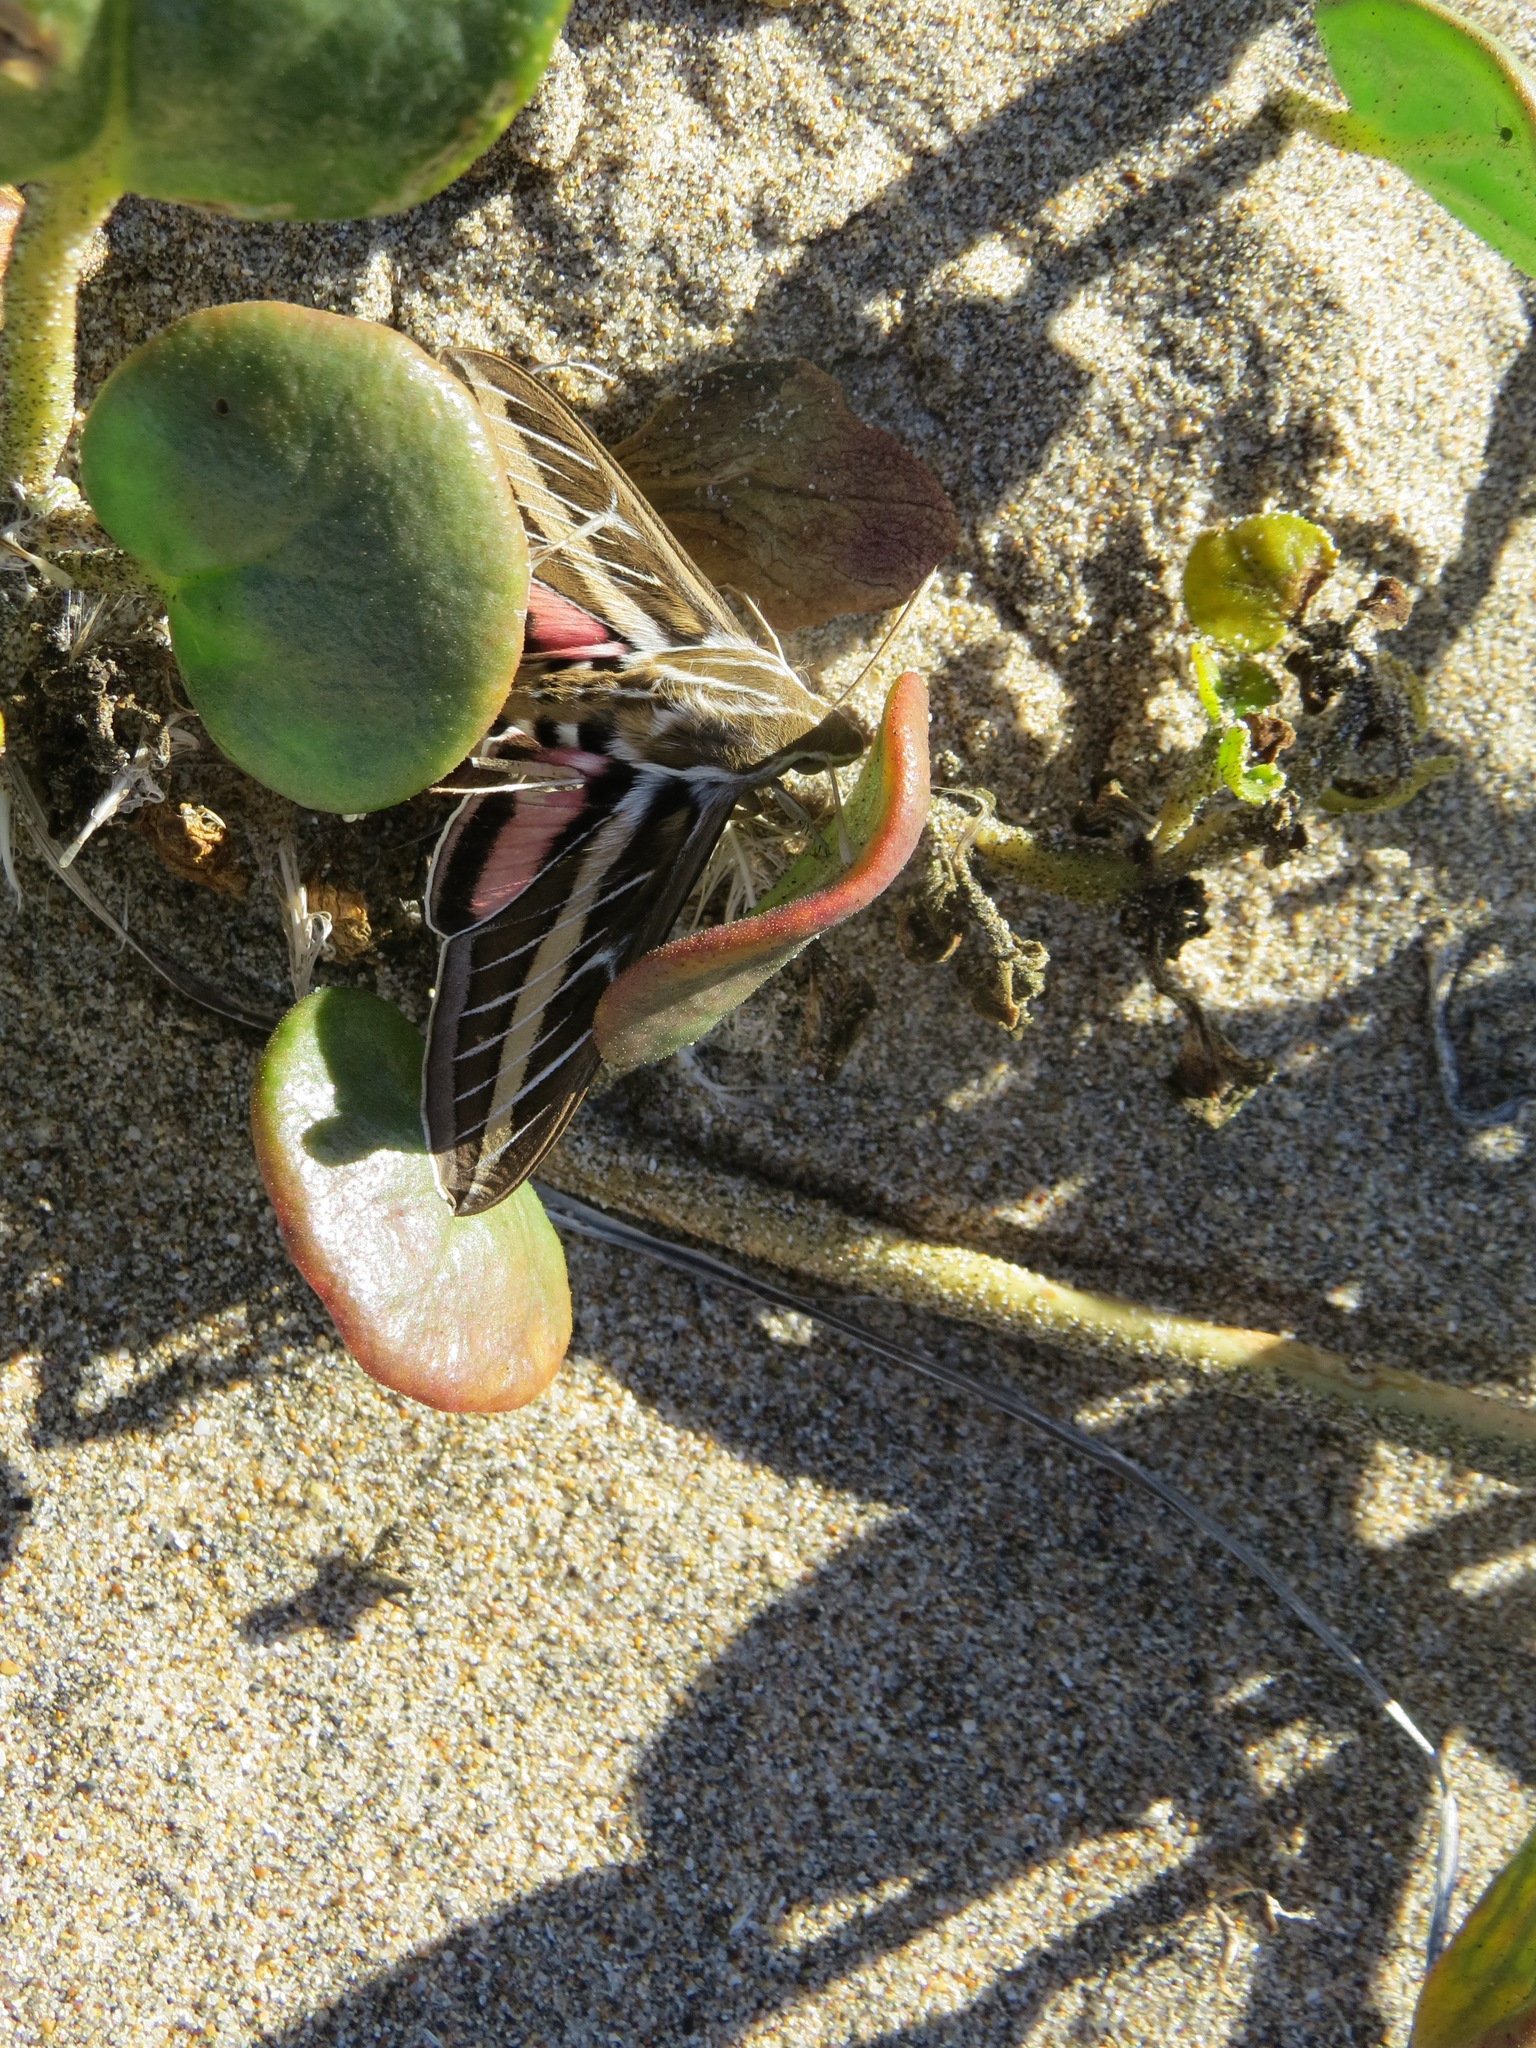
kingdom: Animalia
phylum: Arthropoda
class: Insecta
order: Lepidoptera
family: Sphingidae
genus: Hyles
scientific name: Hyles lineata
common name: White-lined sphinx
